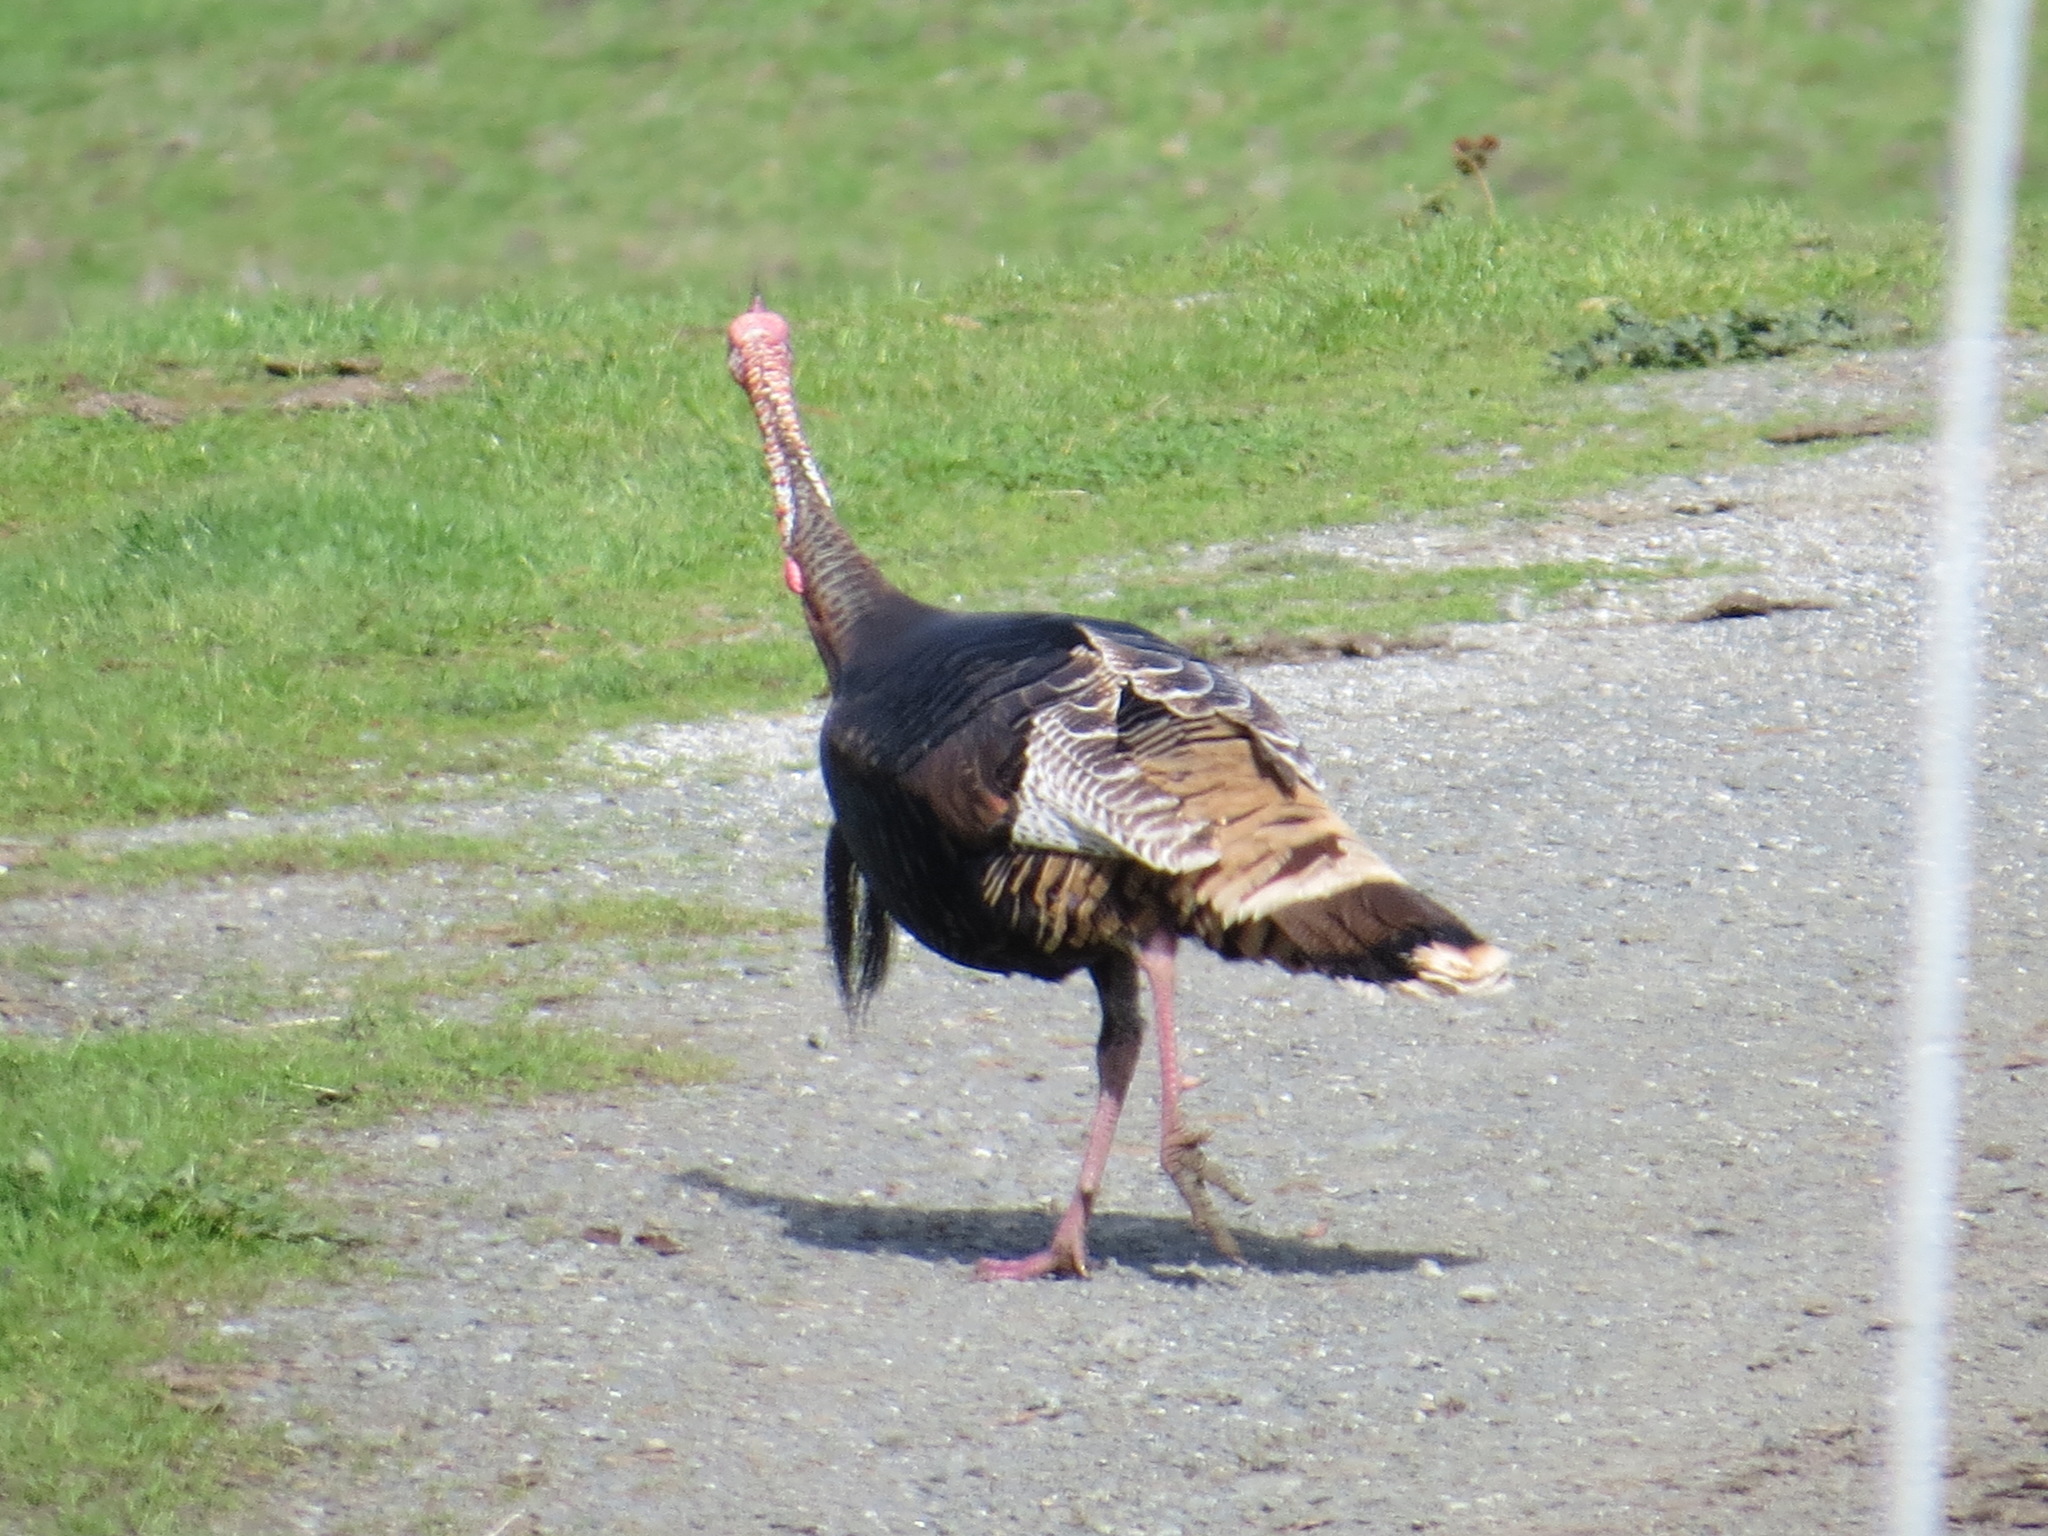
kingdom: Animalia
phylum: Chordata
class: Aves
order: Galliformes
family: Phasianidae
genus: Meleagris
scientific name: Meleagris gallopavo
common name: Wild turkey
